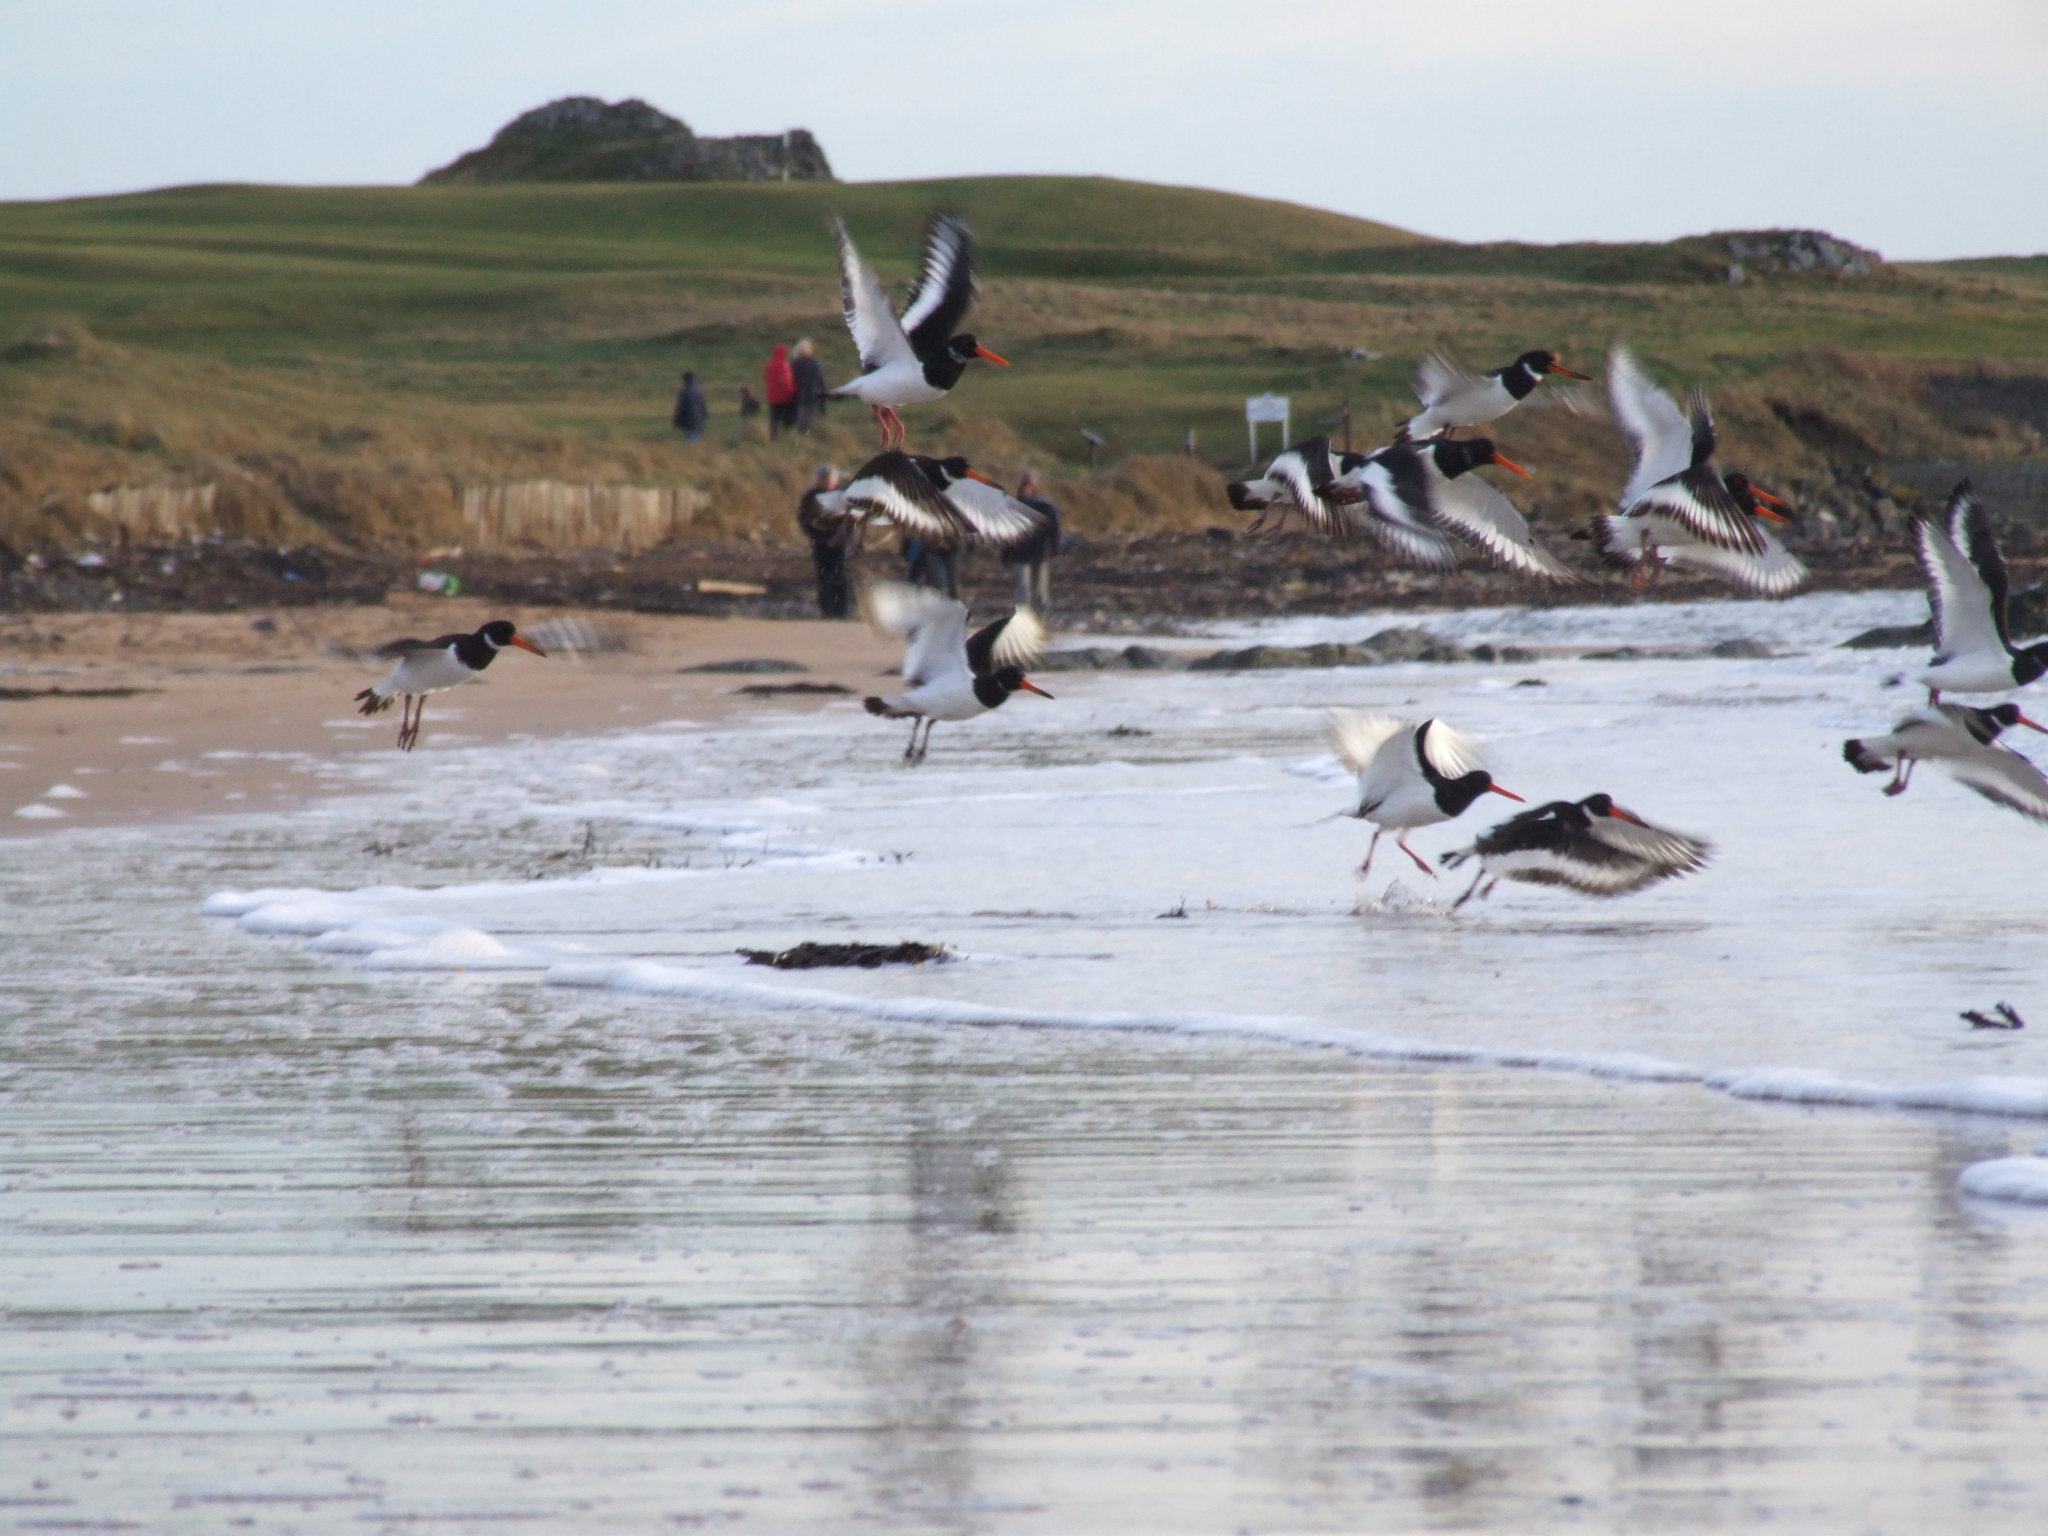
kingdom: Animalia
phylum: Chordata
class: Aves
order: Charadriiformes
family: Haematopodidae
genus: Haematopus
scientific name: Haematopus ostralegus
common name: Eurasian oystercatcher
